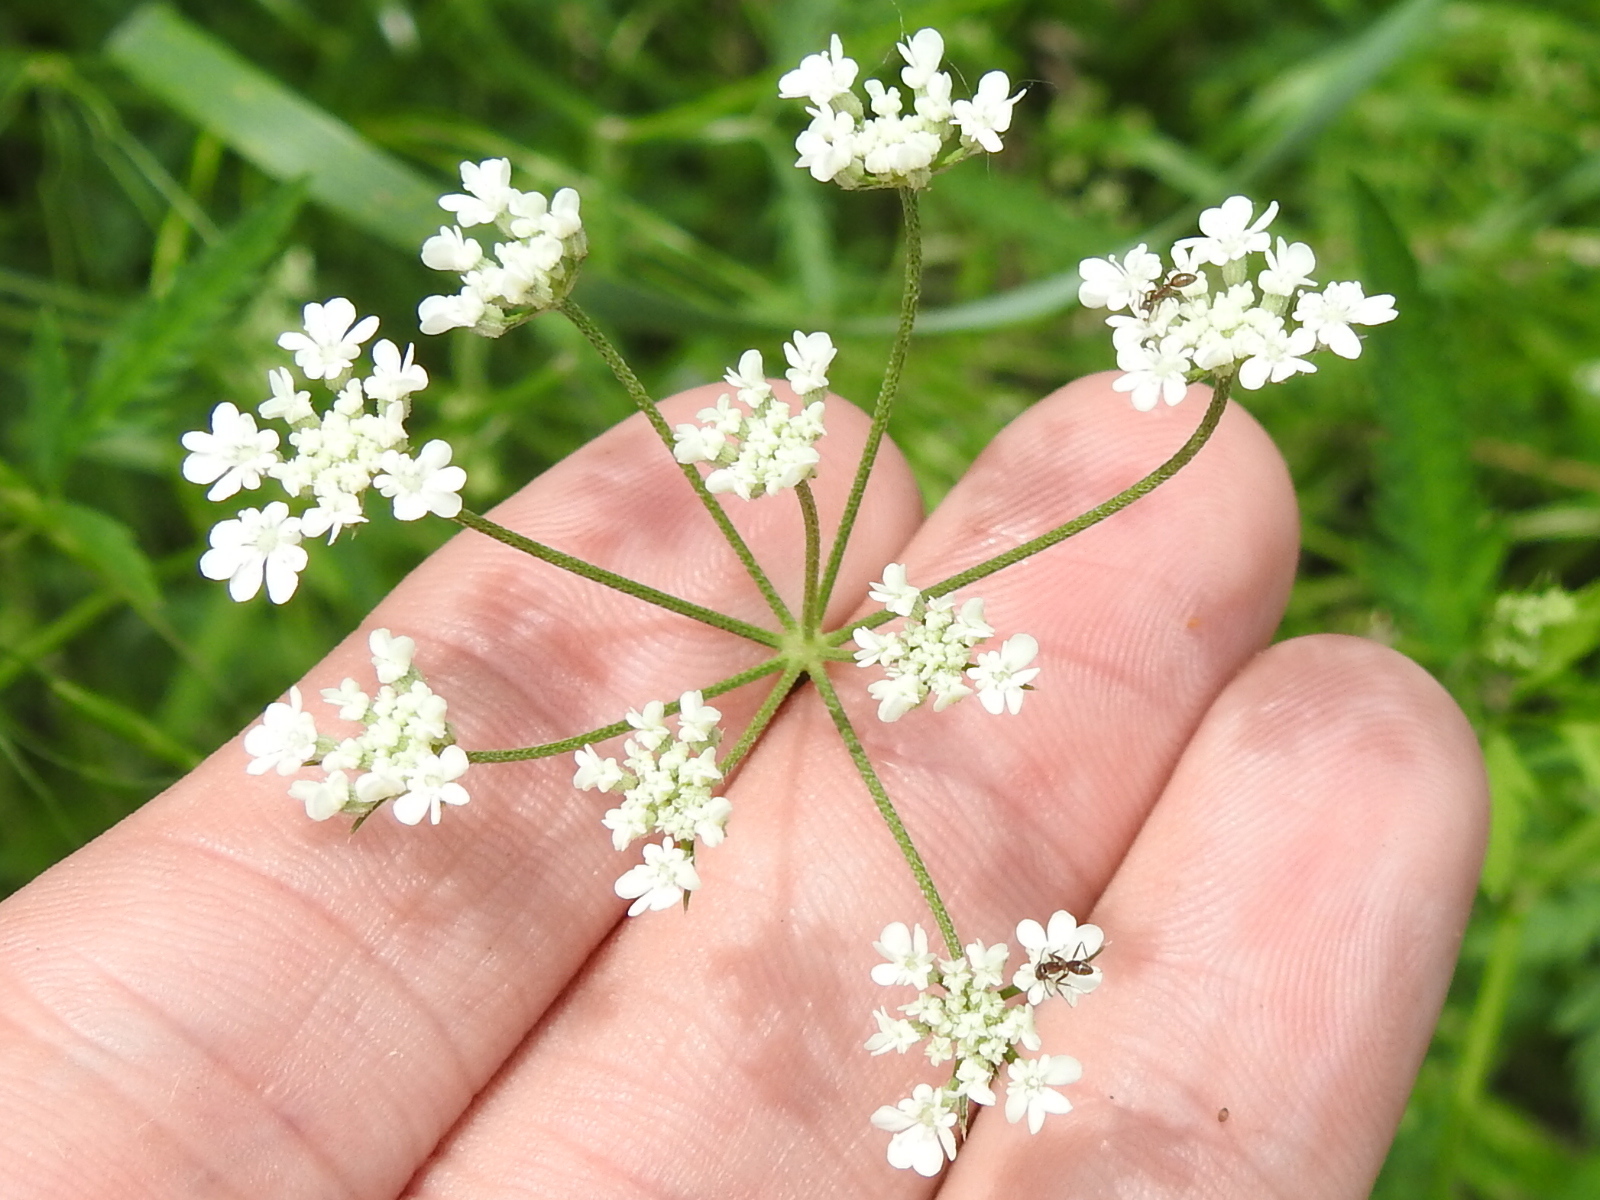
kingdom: Plantae
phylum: Tracheophyta
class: Magnoliopsida
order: Apiales
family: Apiaceae
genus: Torilis
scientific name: Torilis arvensis
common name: Spreading hedge-parsley
